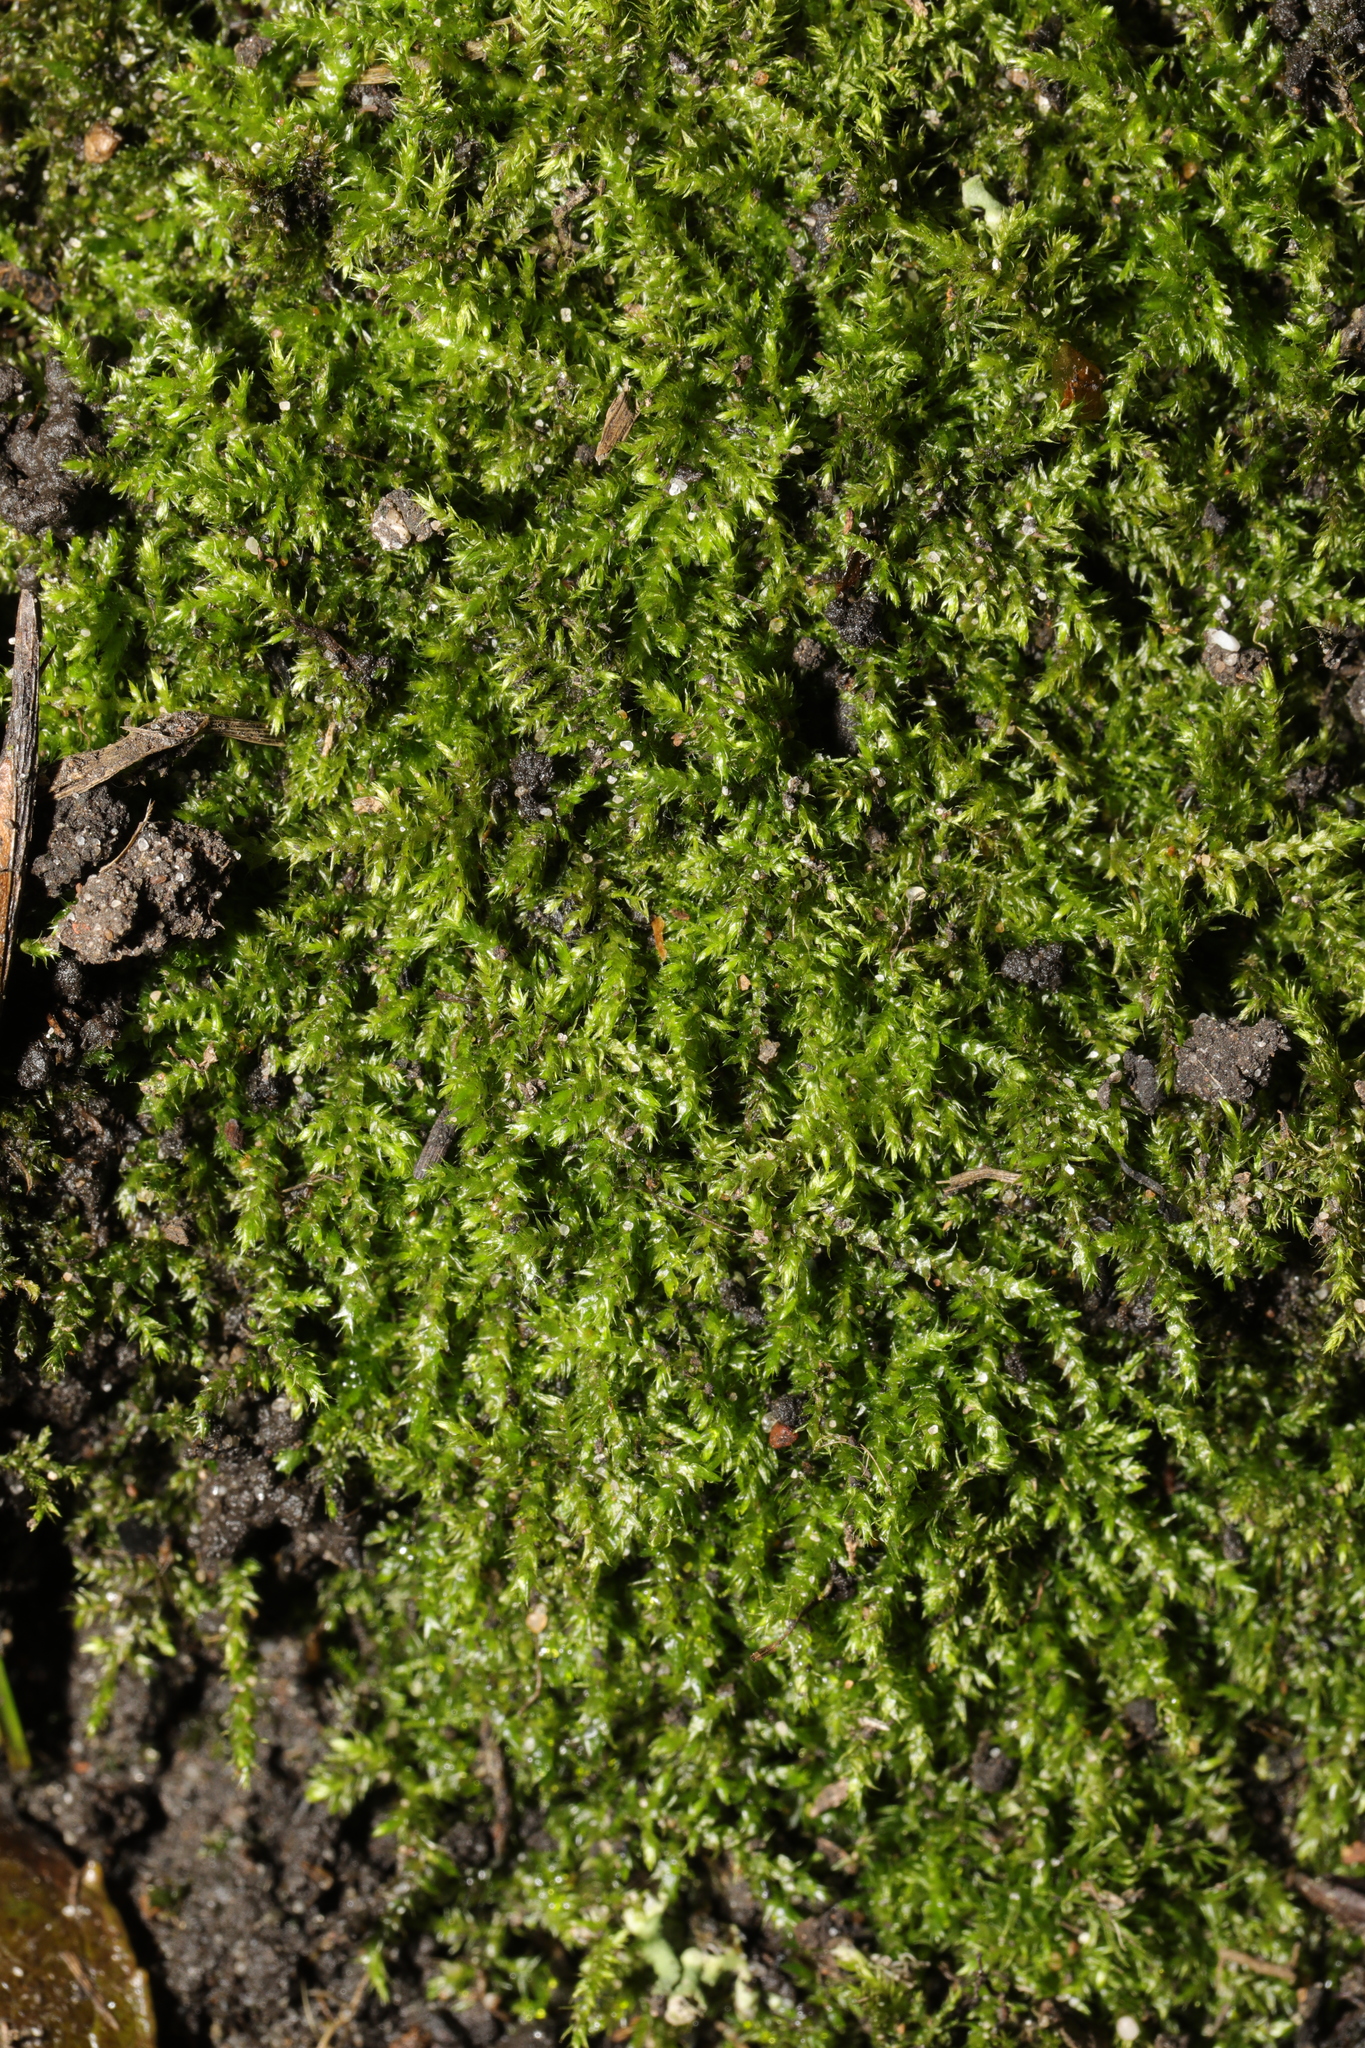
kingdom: Plantae
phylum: Bryophyta
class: Bryopsida
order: Hypnales
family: Brachytheciaceae
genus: Brachythecium
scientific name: Brachythecium rutabulum
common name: Rough-stalked feather-moss
